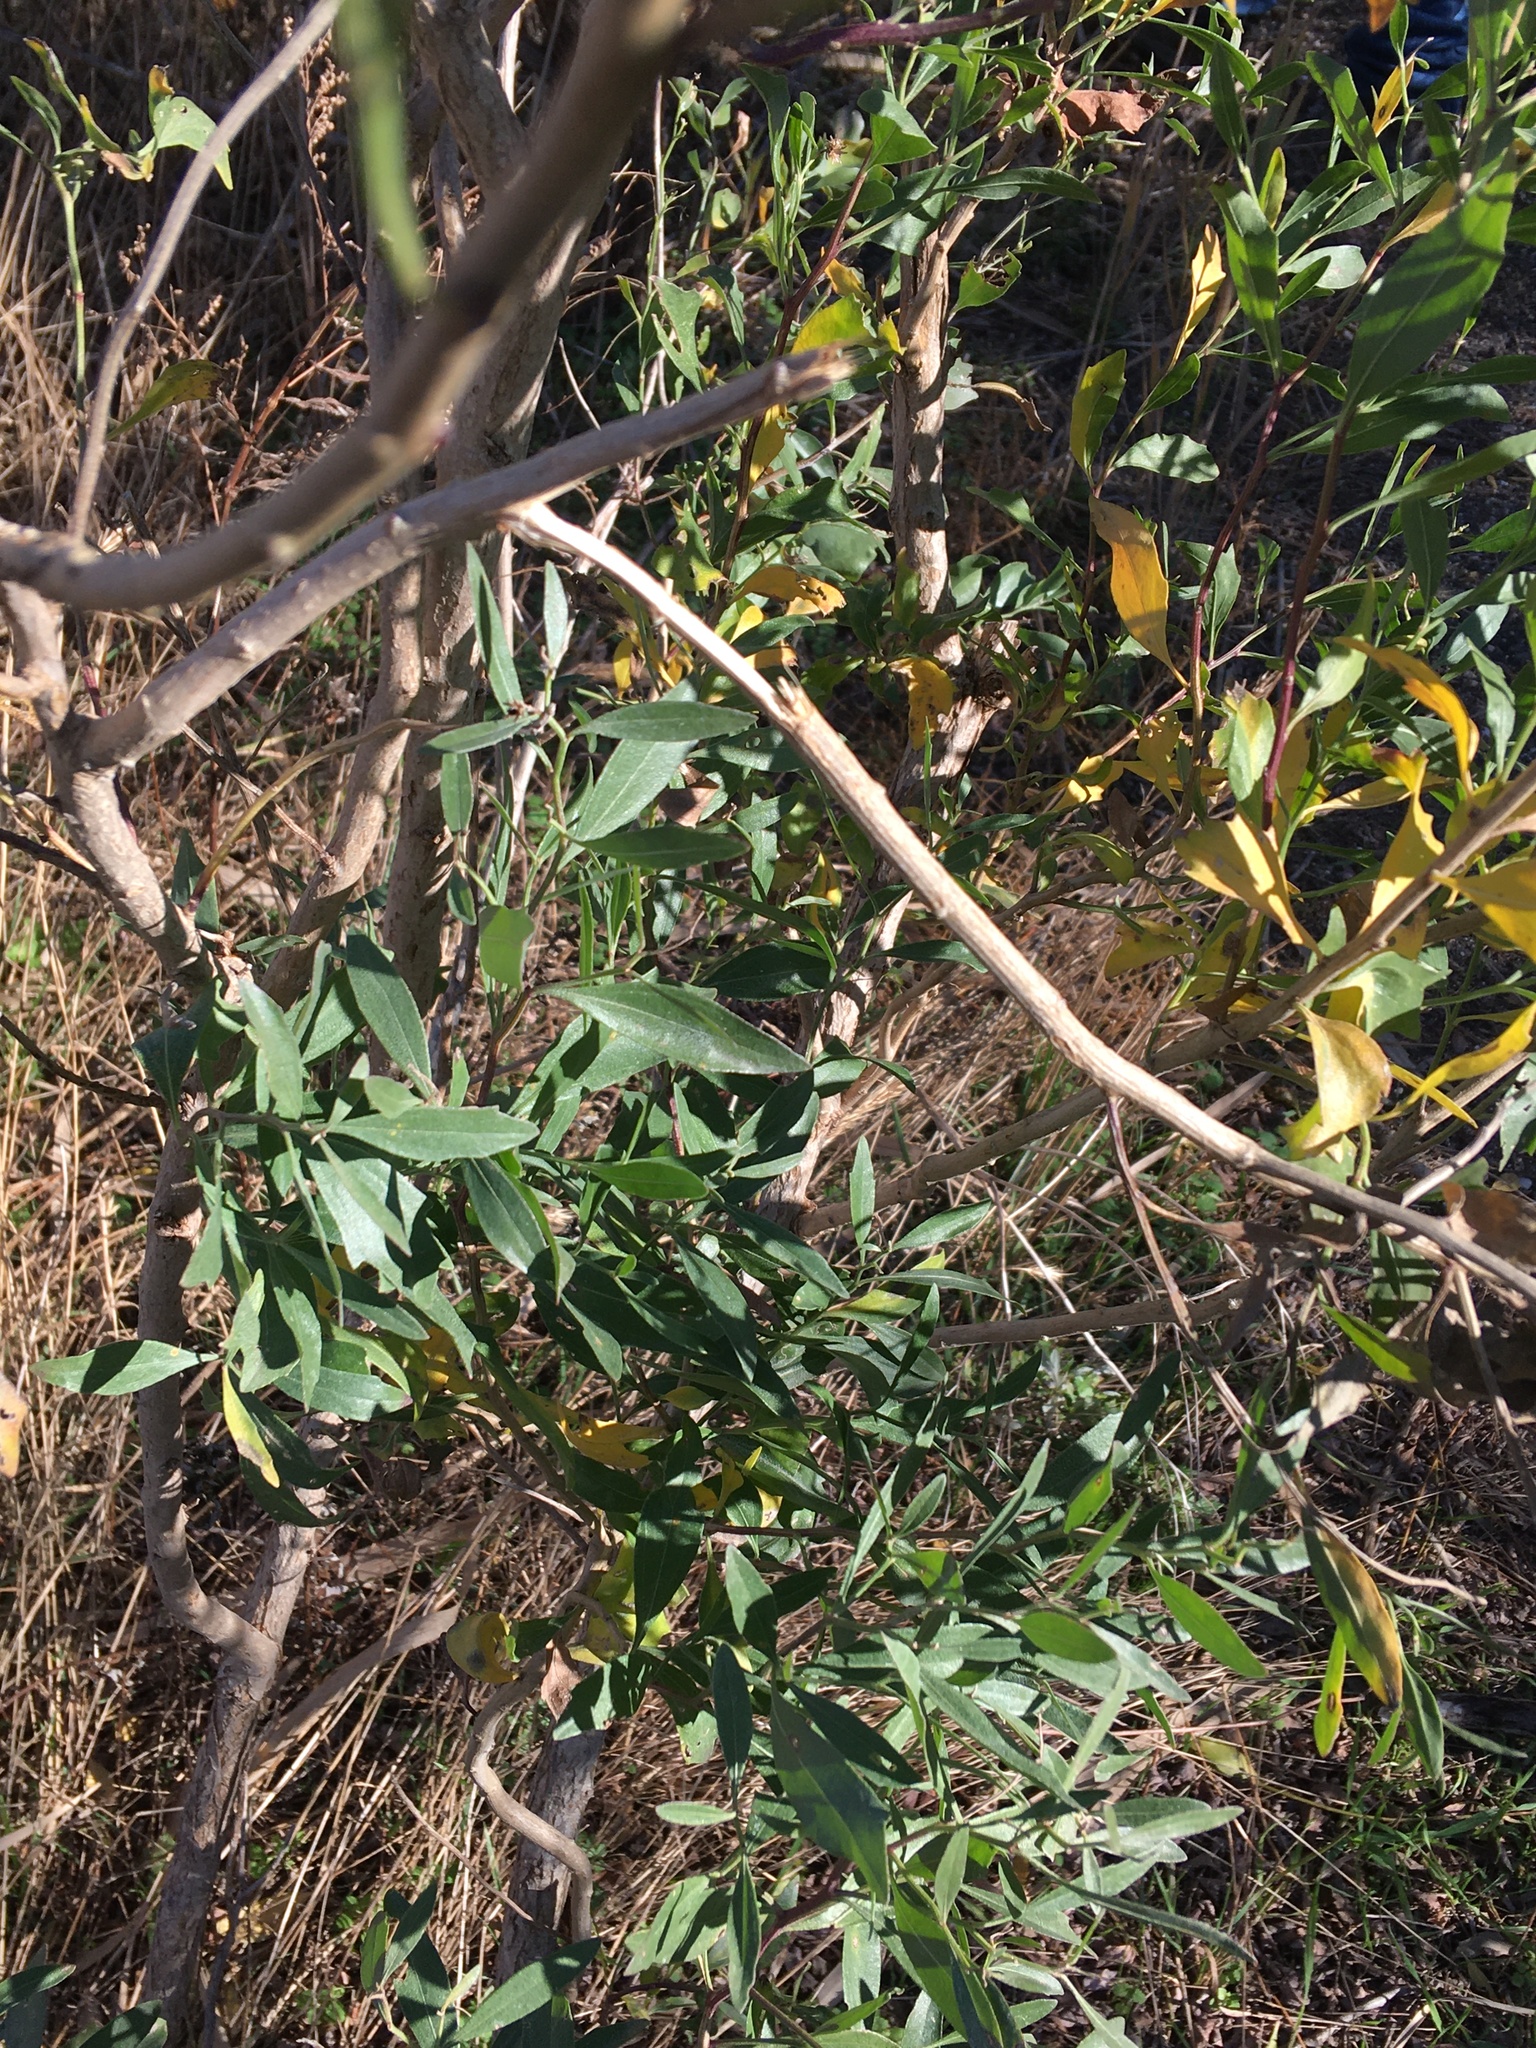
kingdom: Plantae
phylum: Tracheophyta
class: Magnoliopsida
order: Asterales
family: Asteraceae
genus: Baccharis
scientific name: Baccharis halimifolia
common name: Eastern baccharis
